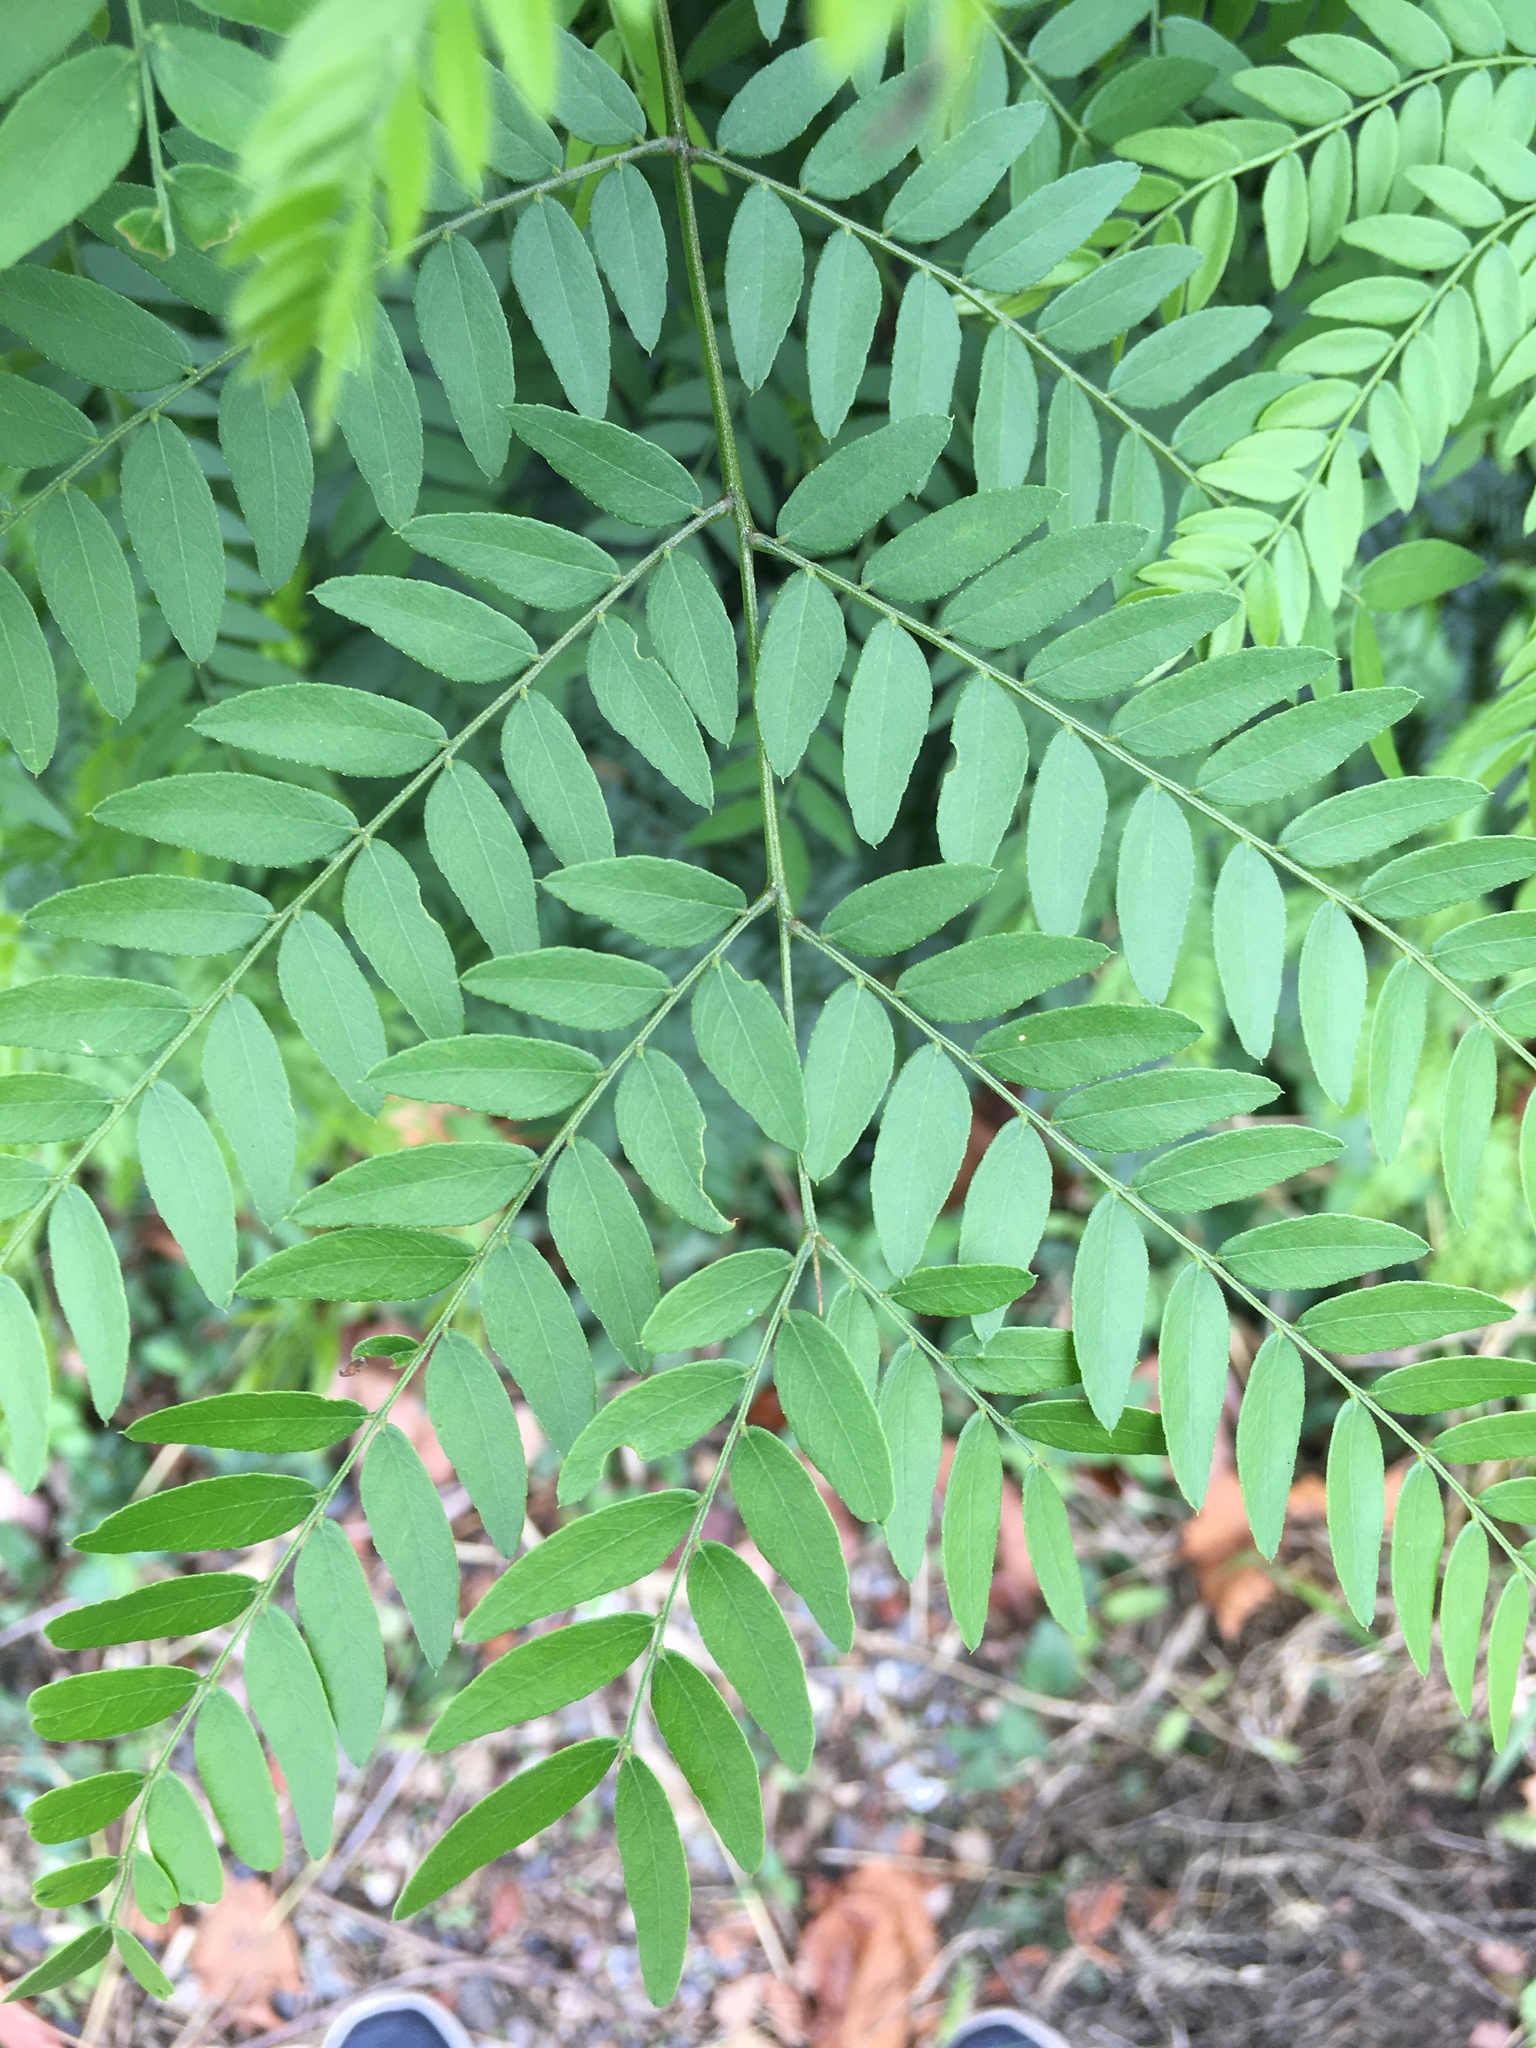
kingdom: Plantae
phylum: Tracheophyta
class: Magnoliopsida
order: Fabales
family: Fabaceae
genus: Gleditsia
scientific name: Gleditsia triacanthos
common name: Common honeylocust
